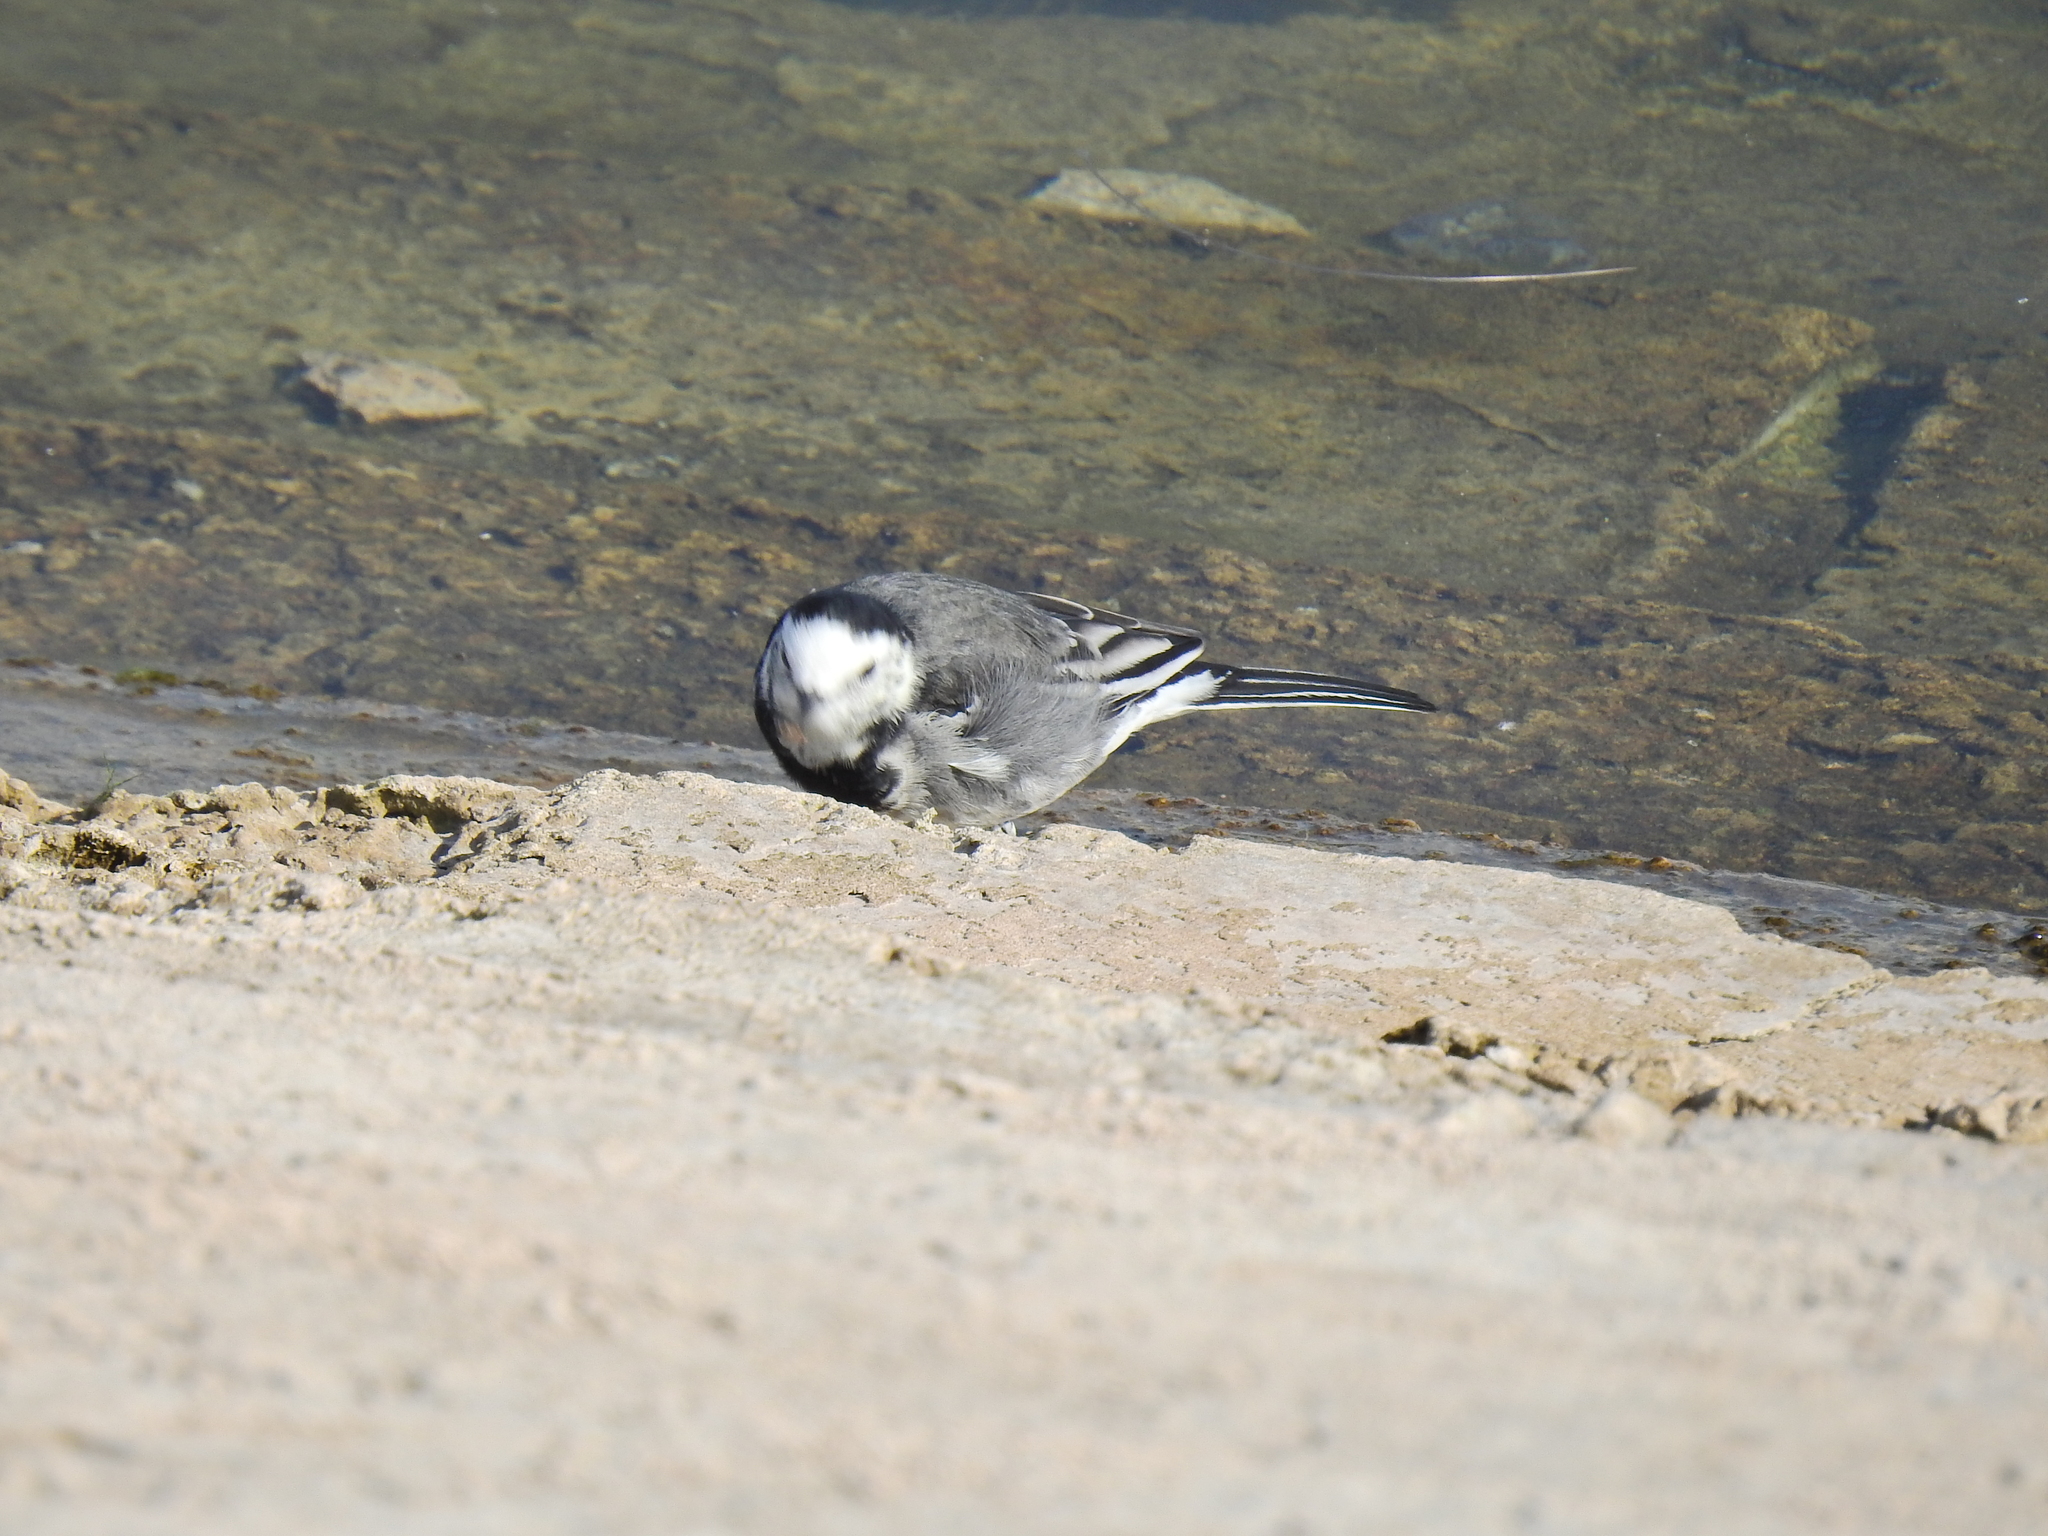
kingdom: Animalia
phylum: Chordata
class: Aves
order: Passeriformes
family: Motacillidae
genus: Motacilla
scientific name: Motacilla alba
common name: White wagtail
